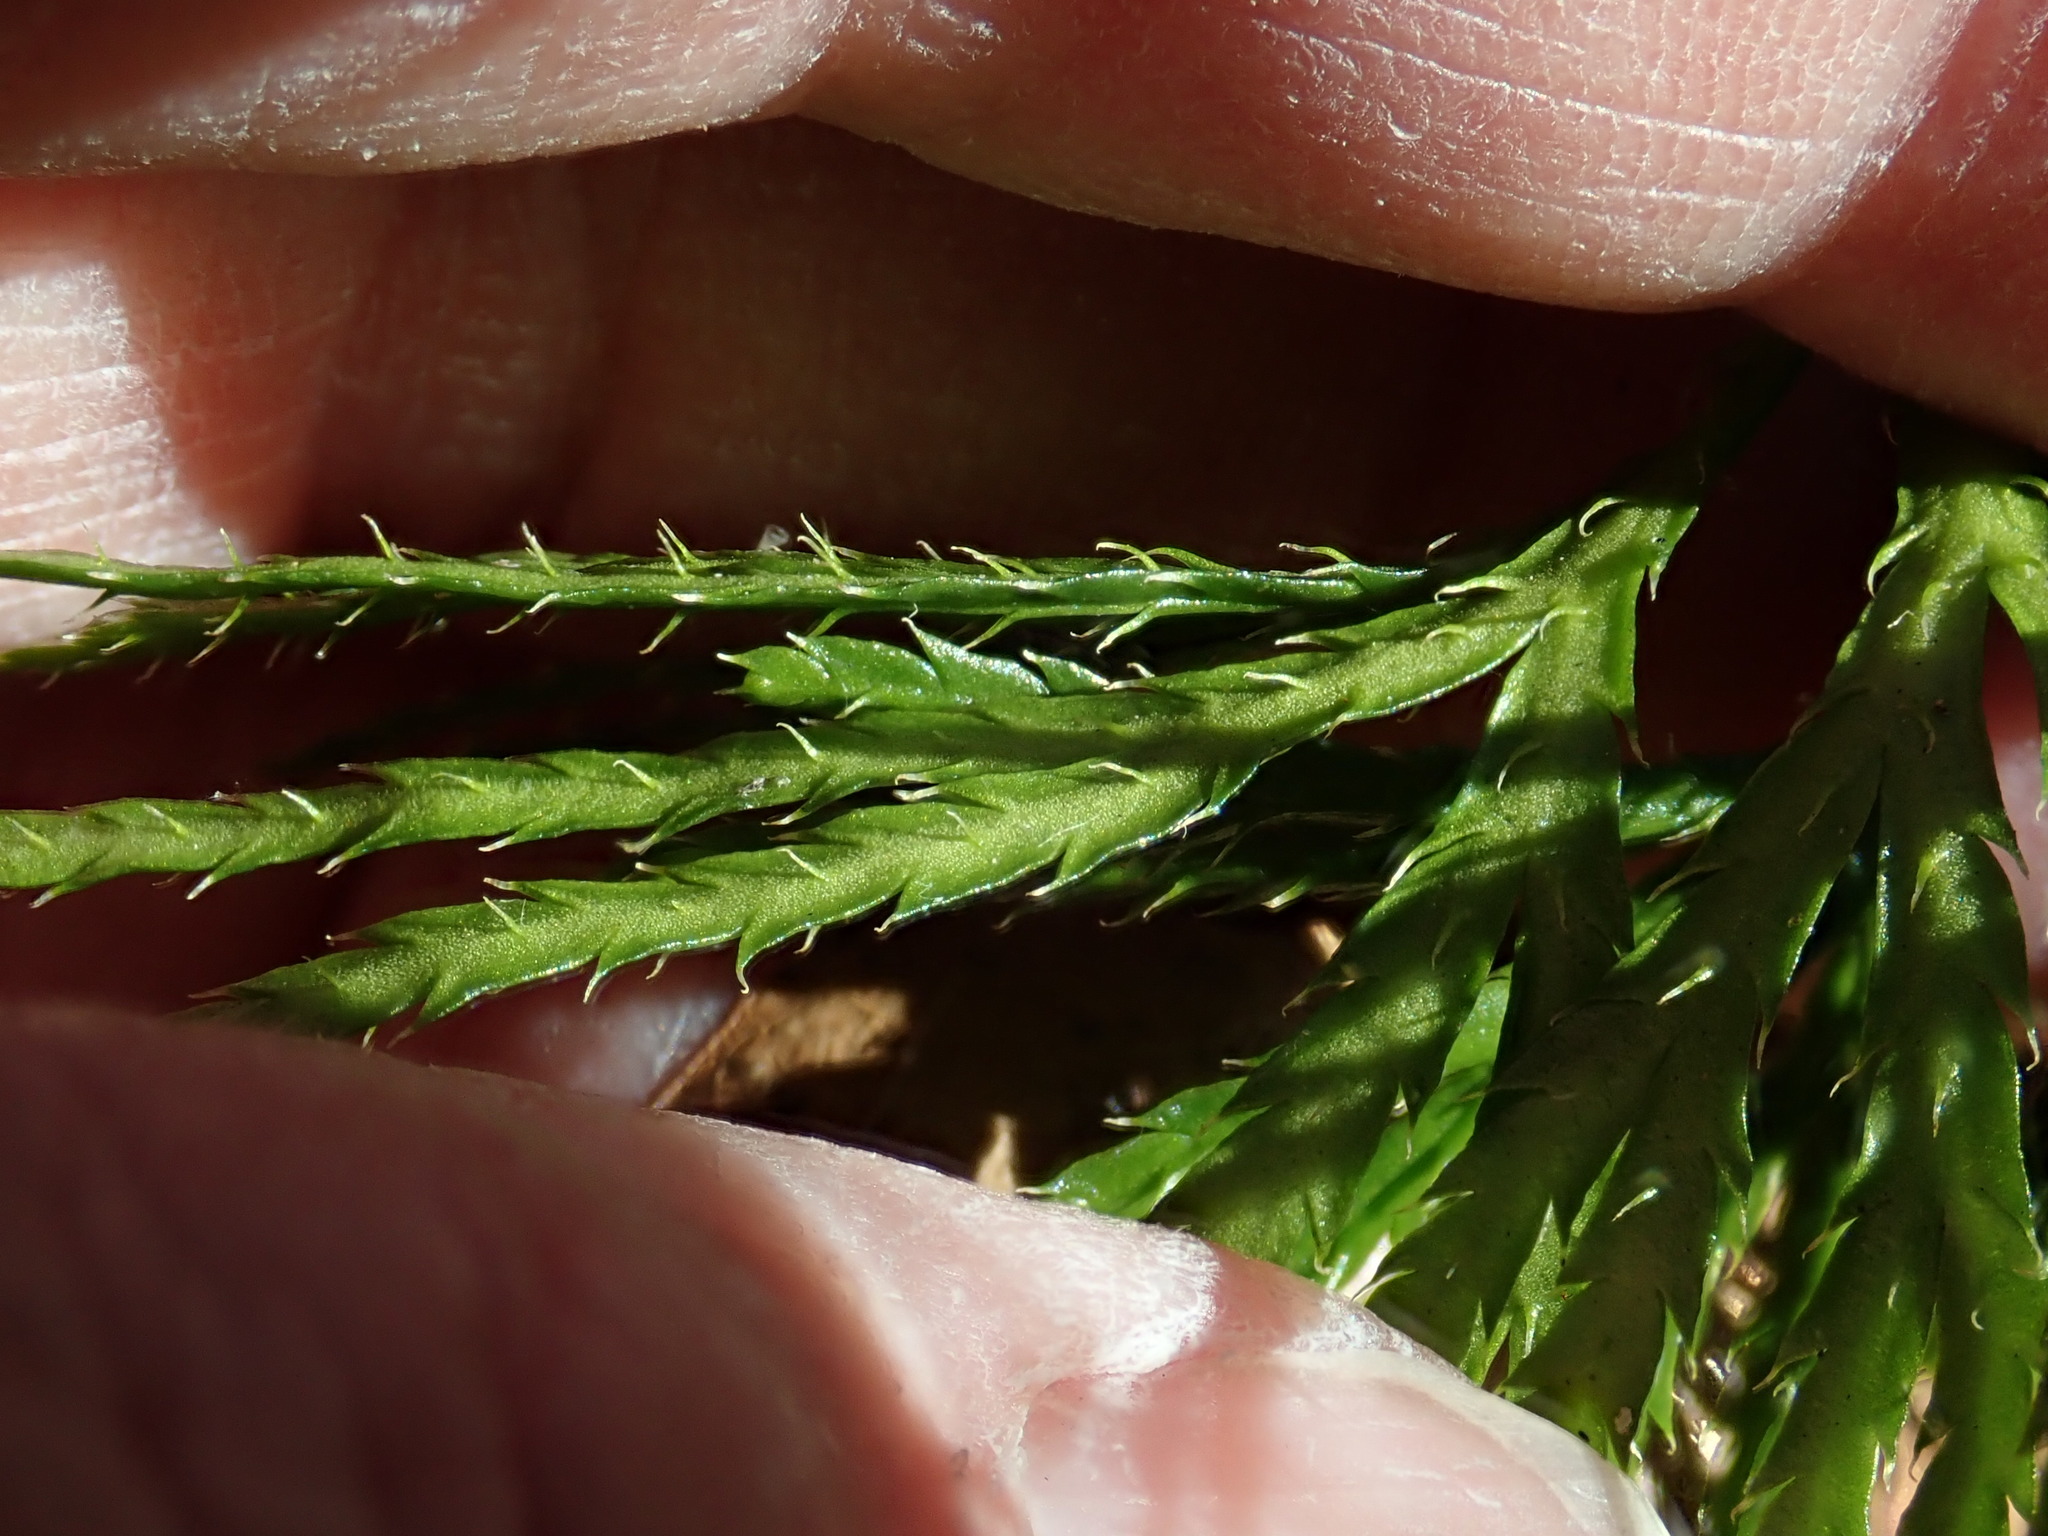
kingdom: Plantae
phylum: Tracheophyta
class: Lycopodiopsida
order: Lycopodiales
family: Lycopodiaceae
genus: Diphasiastrum
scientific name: Diphasiastrum digitatum
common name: Southern running-pine
